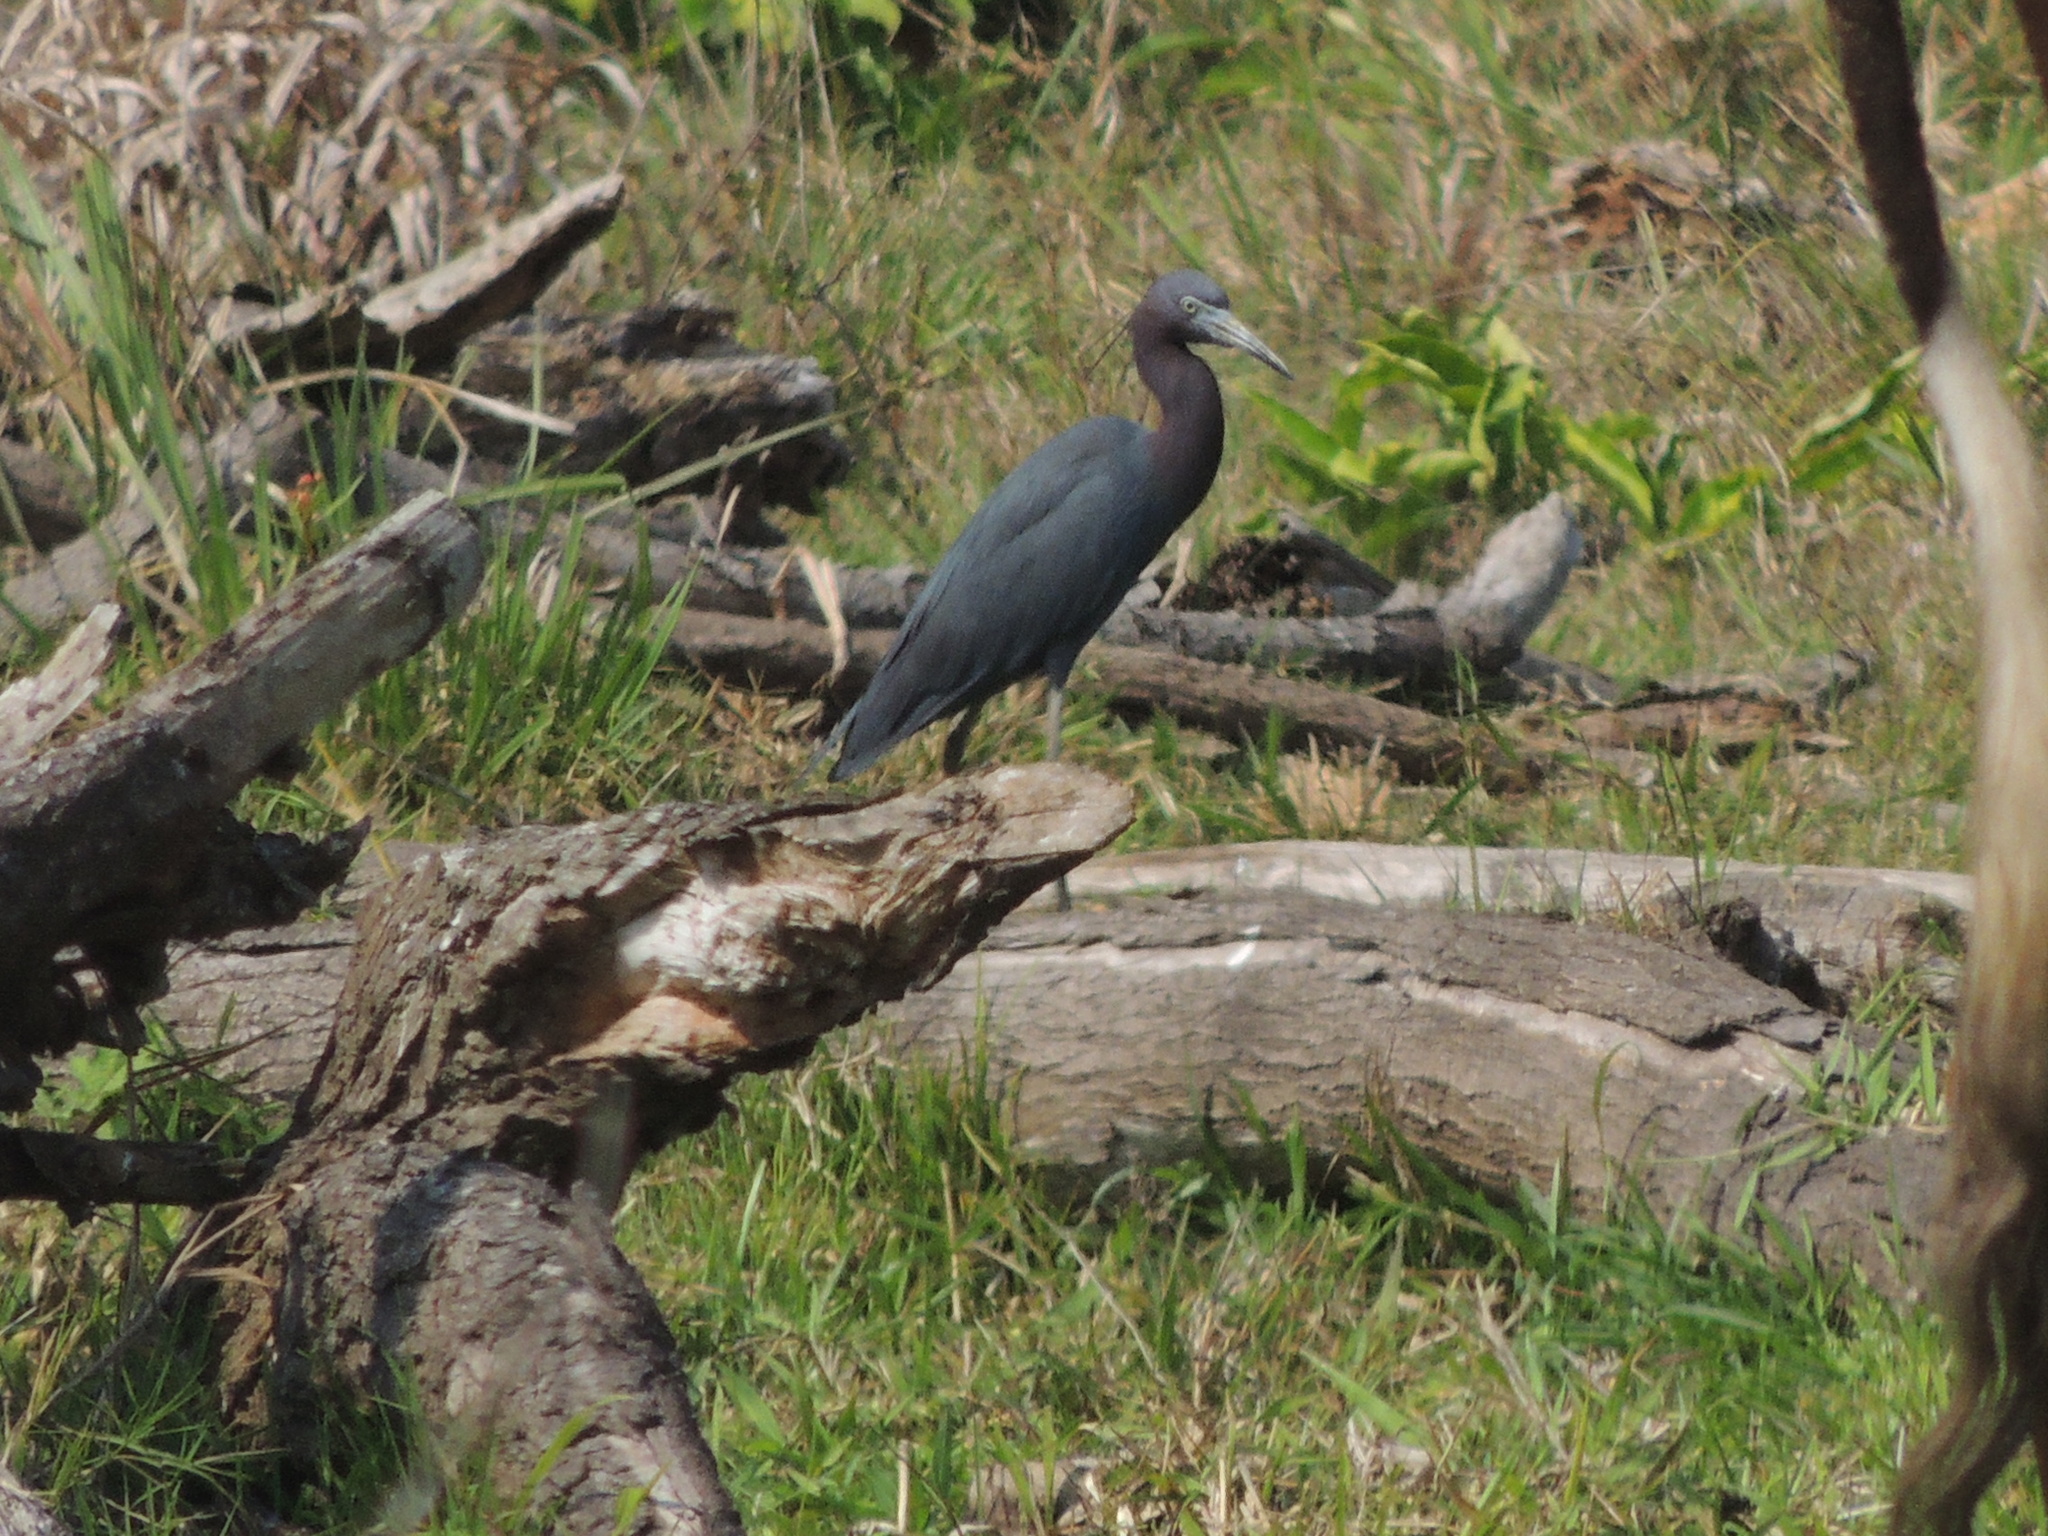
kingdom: Animalia
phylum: Chordata
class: Aves
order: Pelecaniformes
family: Ardeidae
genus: Egretta
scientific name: Egretta caerulea
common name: Little blue heron
